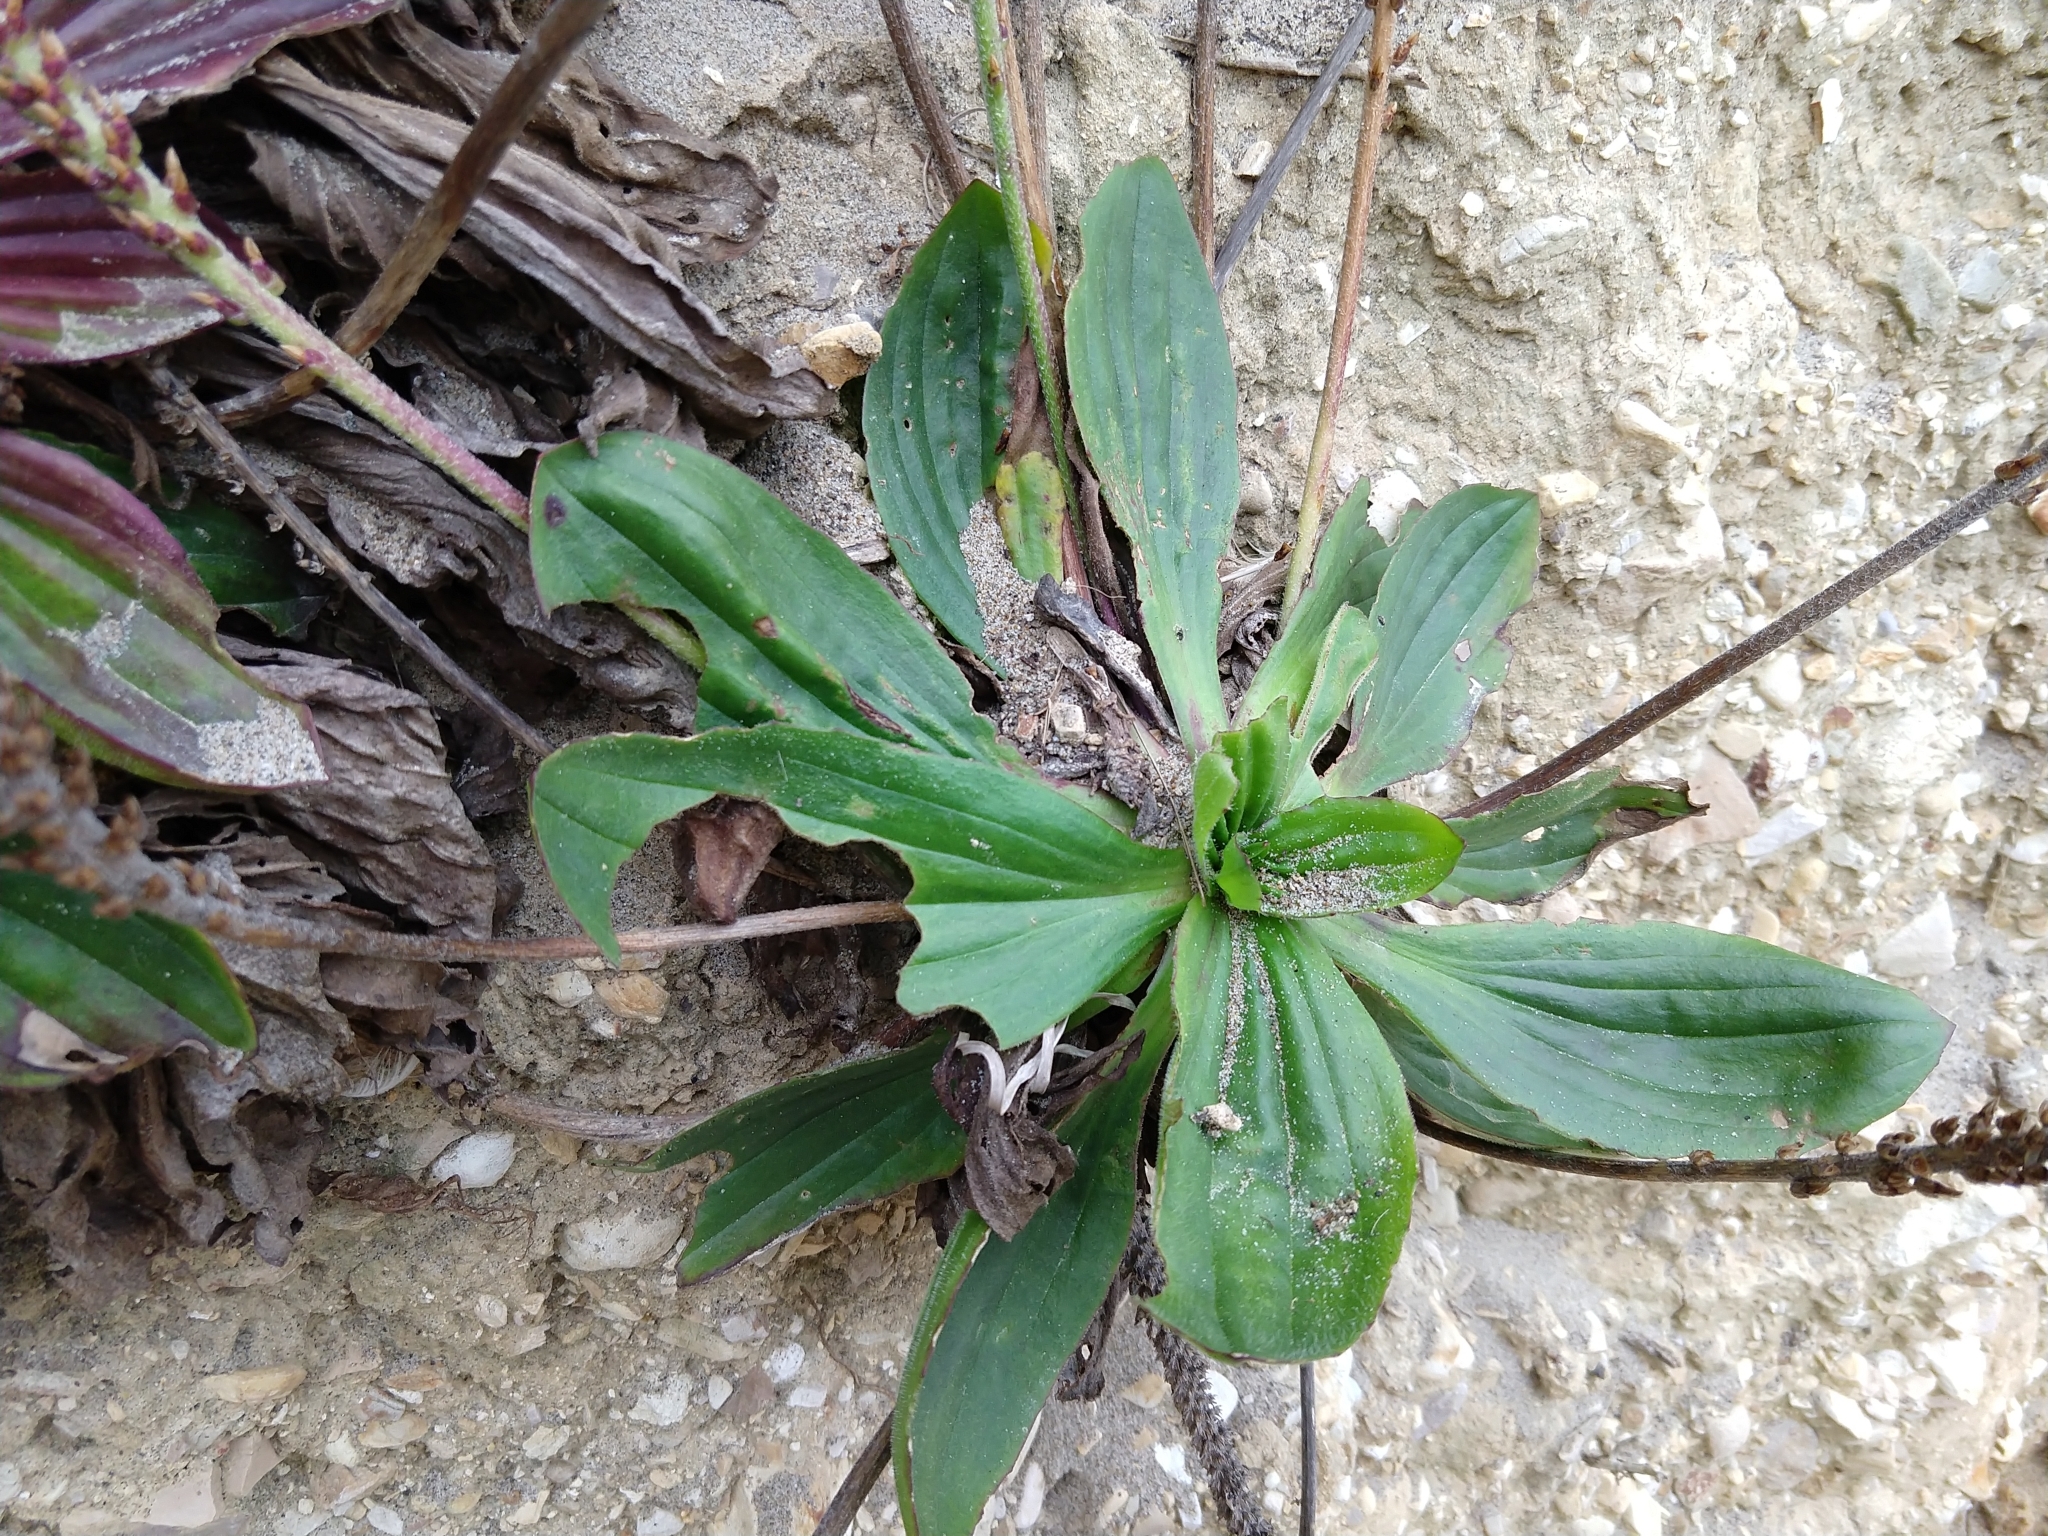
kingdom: Plantae
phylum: Tracheophyta
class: Magnoliopsida
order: Lamiales
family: Plantaginaceae
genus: Plantago
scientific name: Plantago subnuda
